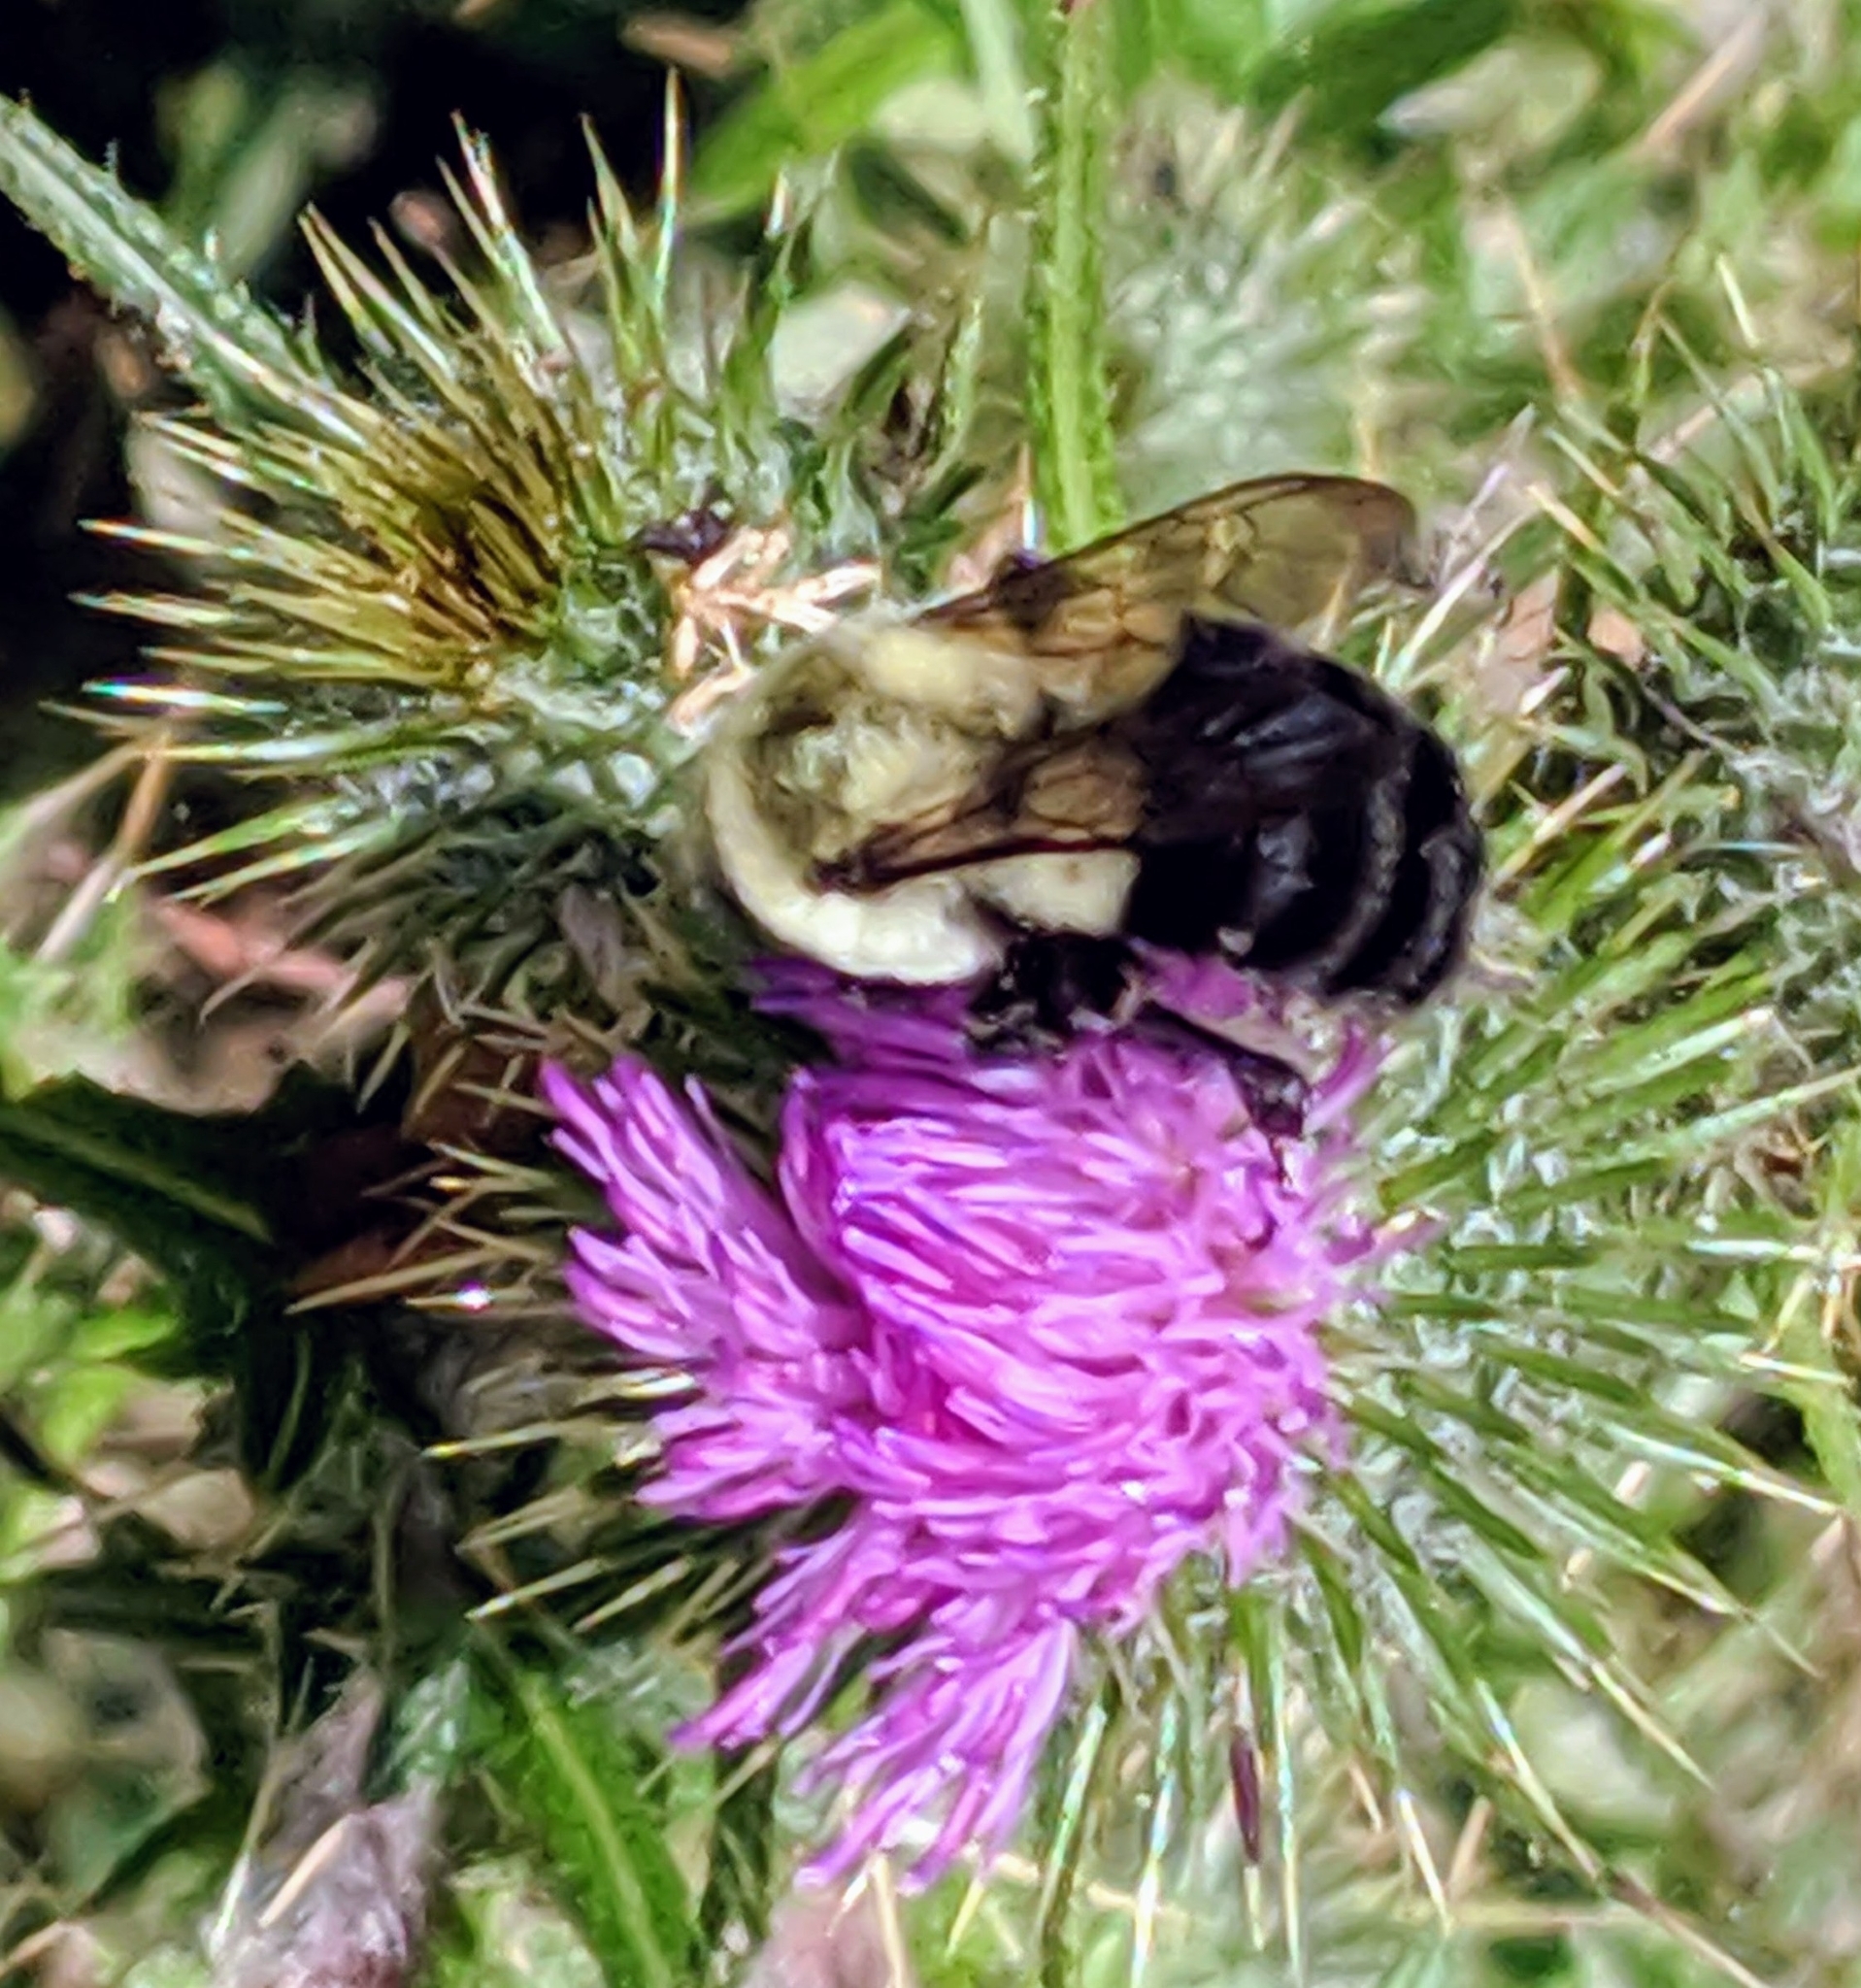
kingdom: Animalia
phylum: Arthropoda
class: Insecta
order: Hymenoptera
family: Apidae
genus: Bombus
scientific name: Bombus impatiens
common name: Common eastern bumble bee
